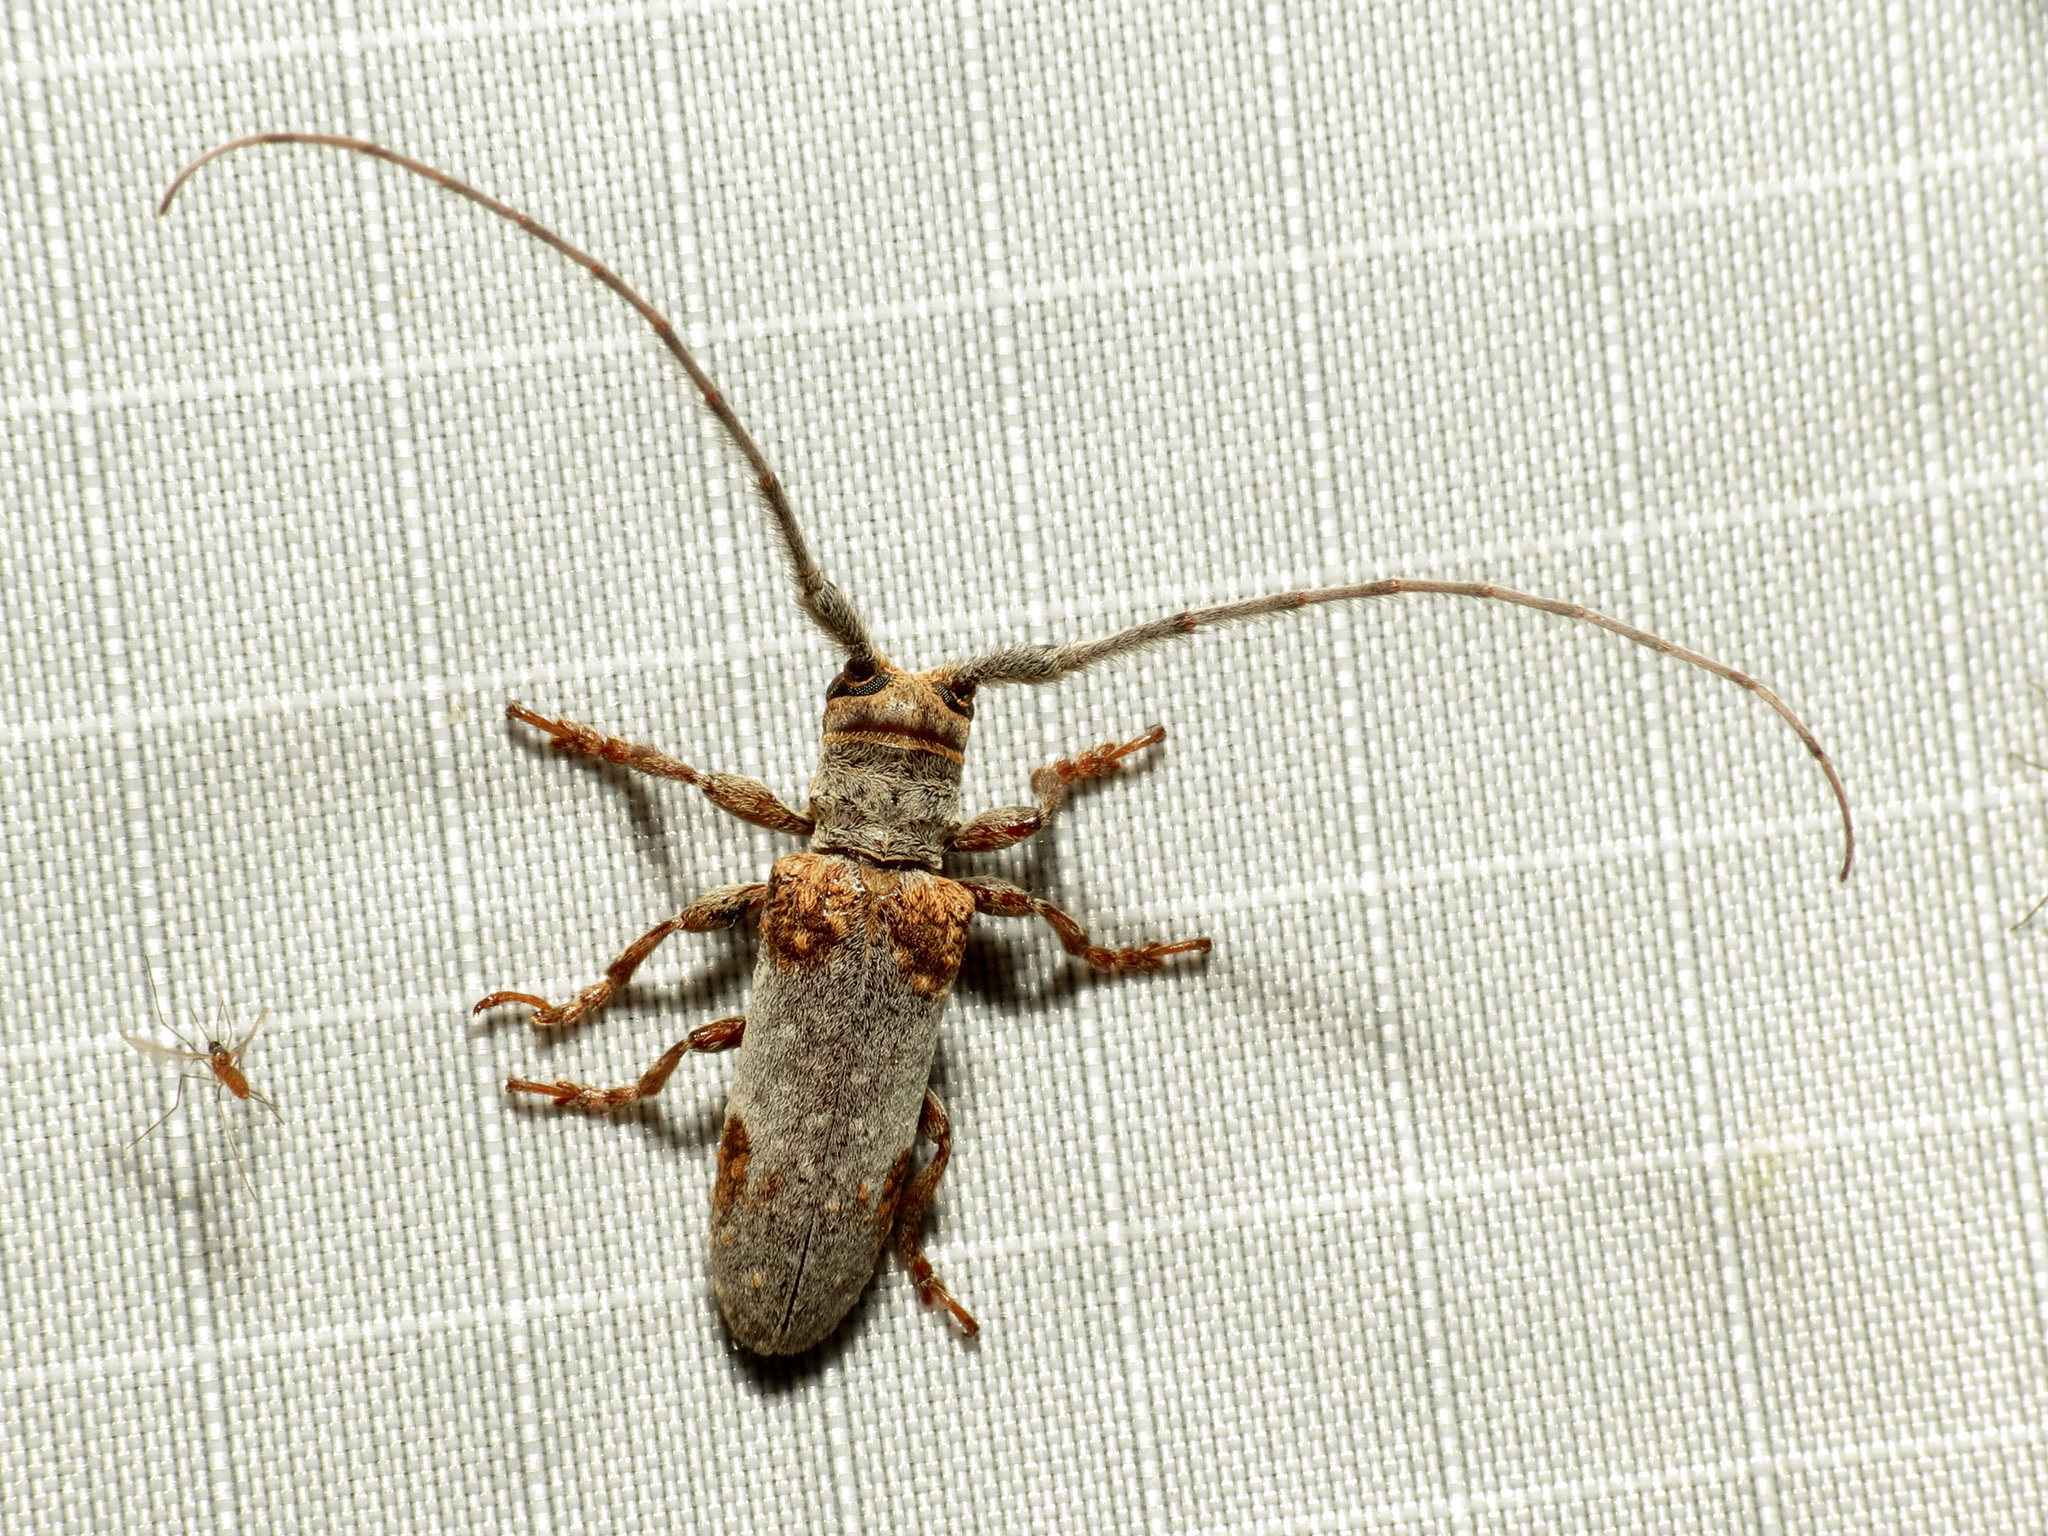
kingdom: Animalia
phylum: Arthropoda
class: Insecta
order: Coleoptera
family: Cerambycidae
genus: Oncideres
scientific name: Oncideres quercus
